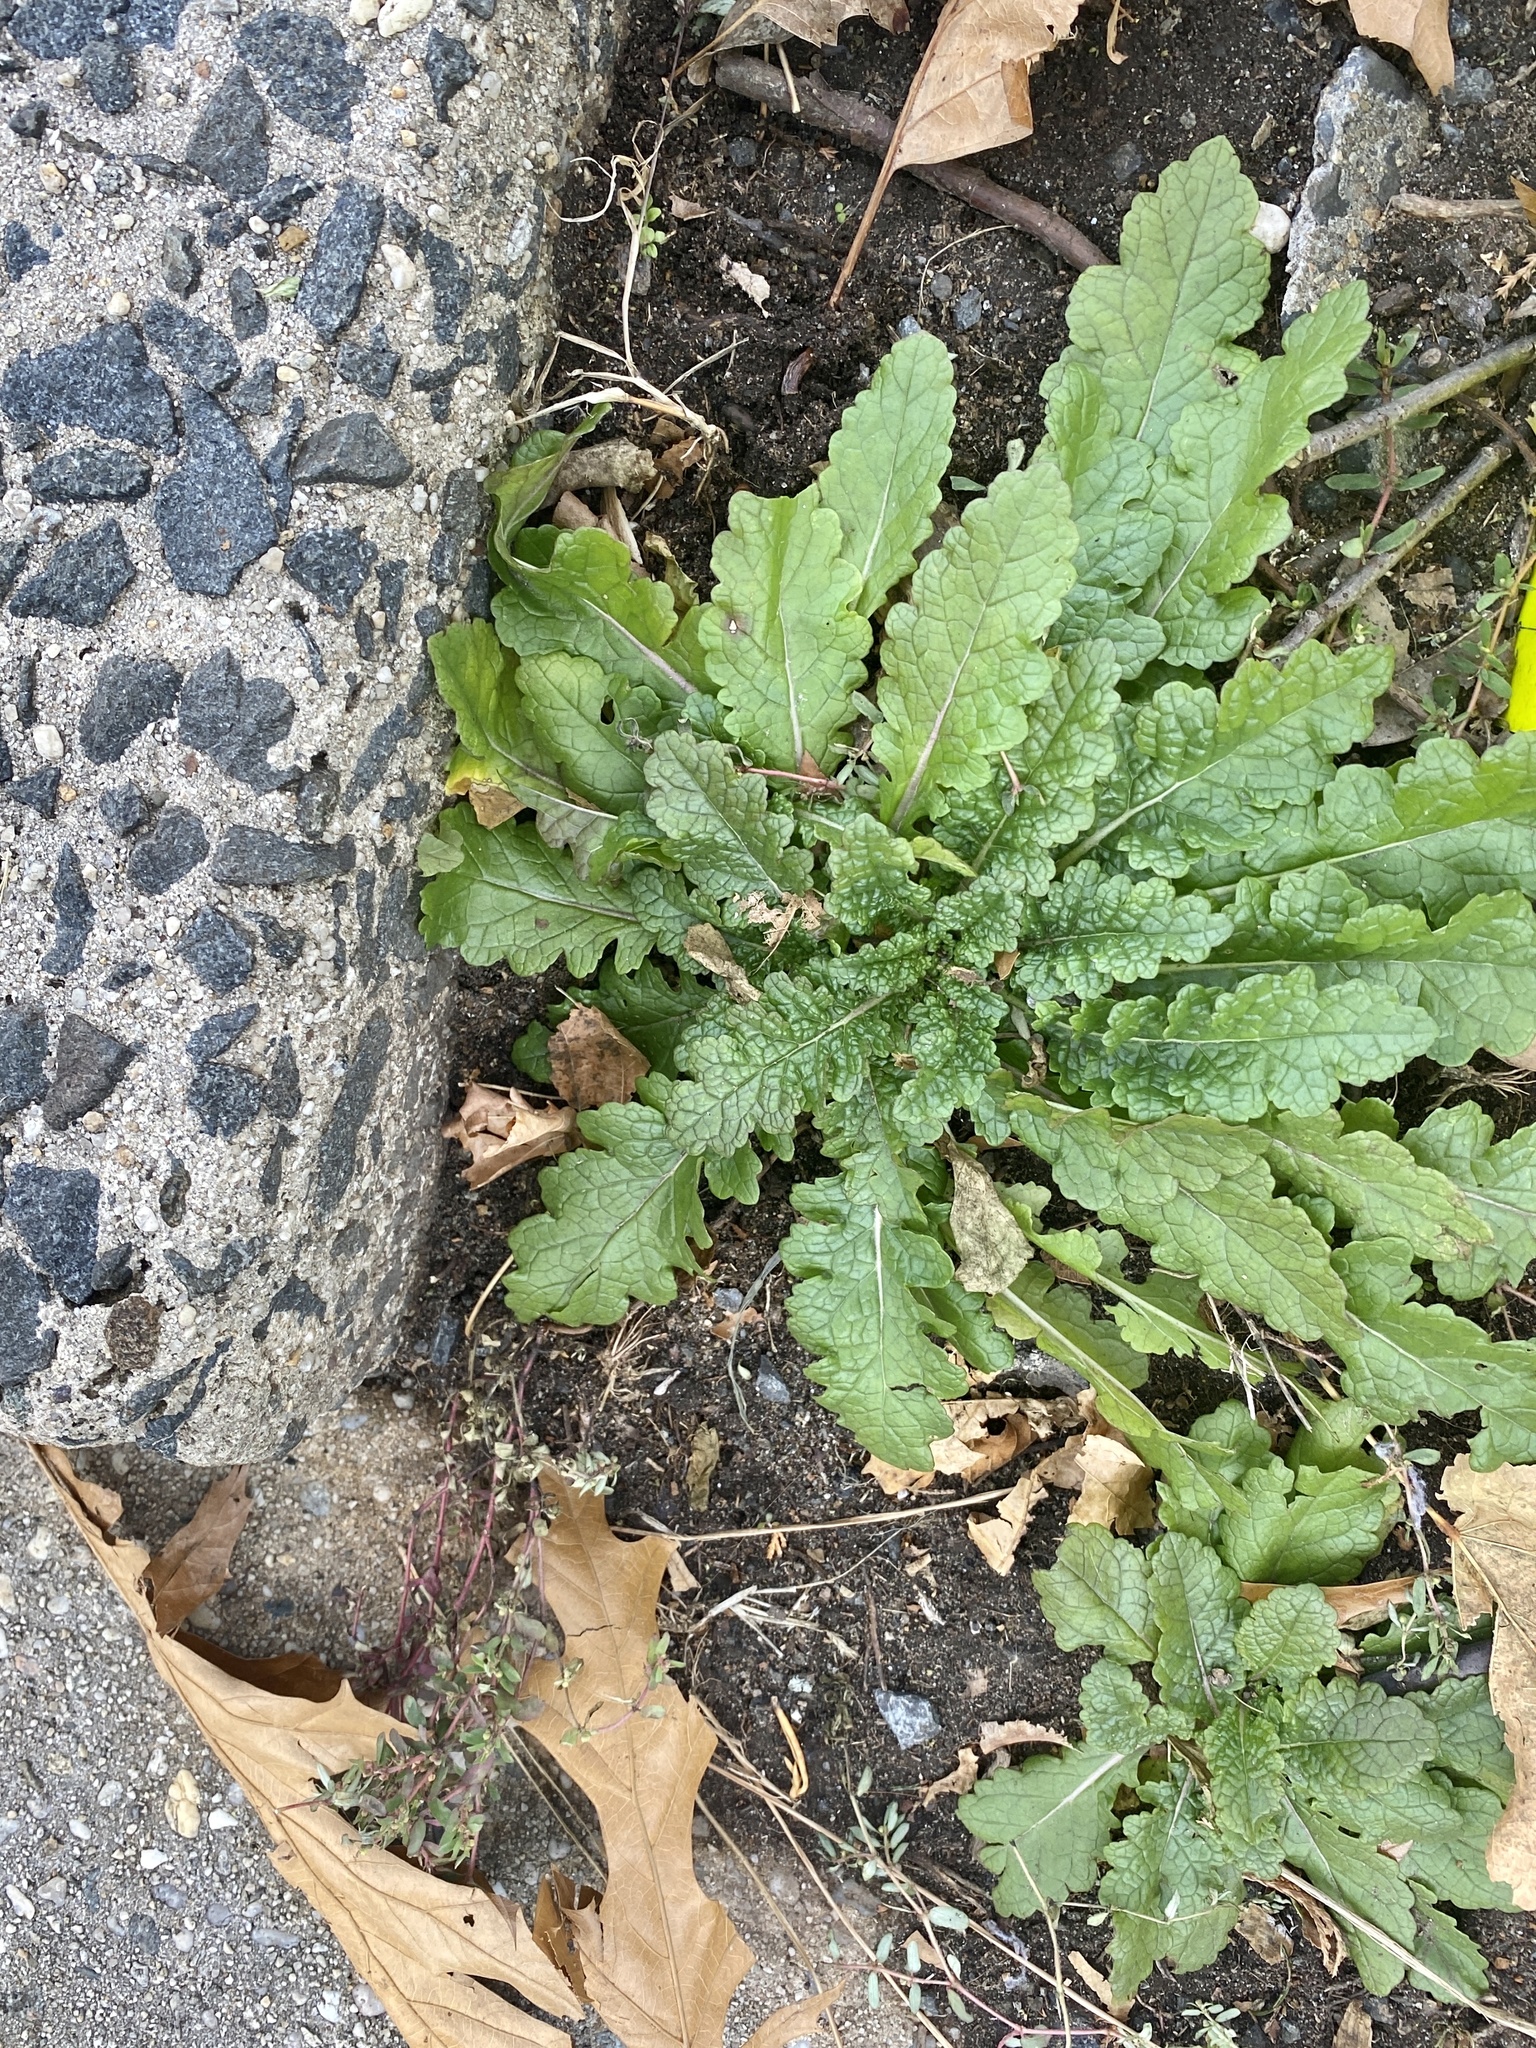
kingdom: Plantae
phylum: Tracheophyta
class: Magnoliopsida
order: Lamiales
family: Scrophulariaceae
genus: Verbascum
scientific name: Verbascum blattaria
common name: Moth mullein
